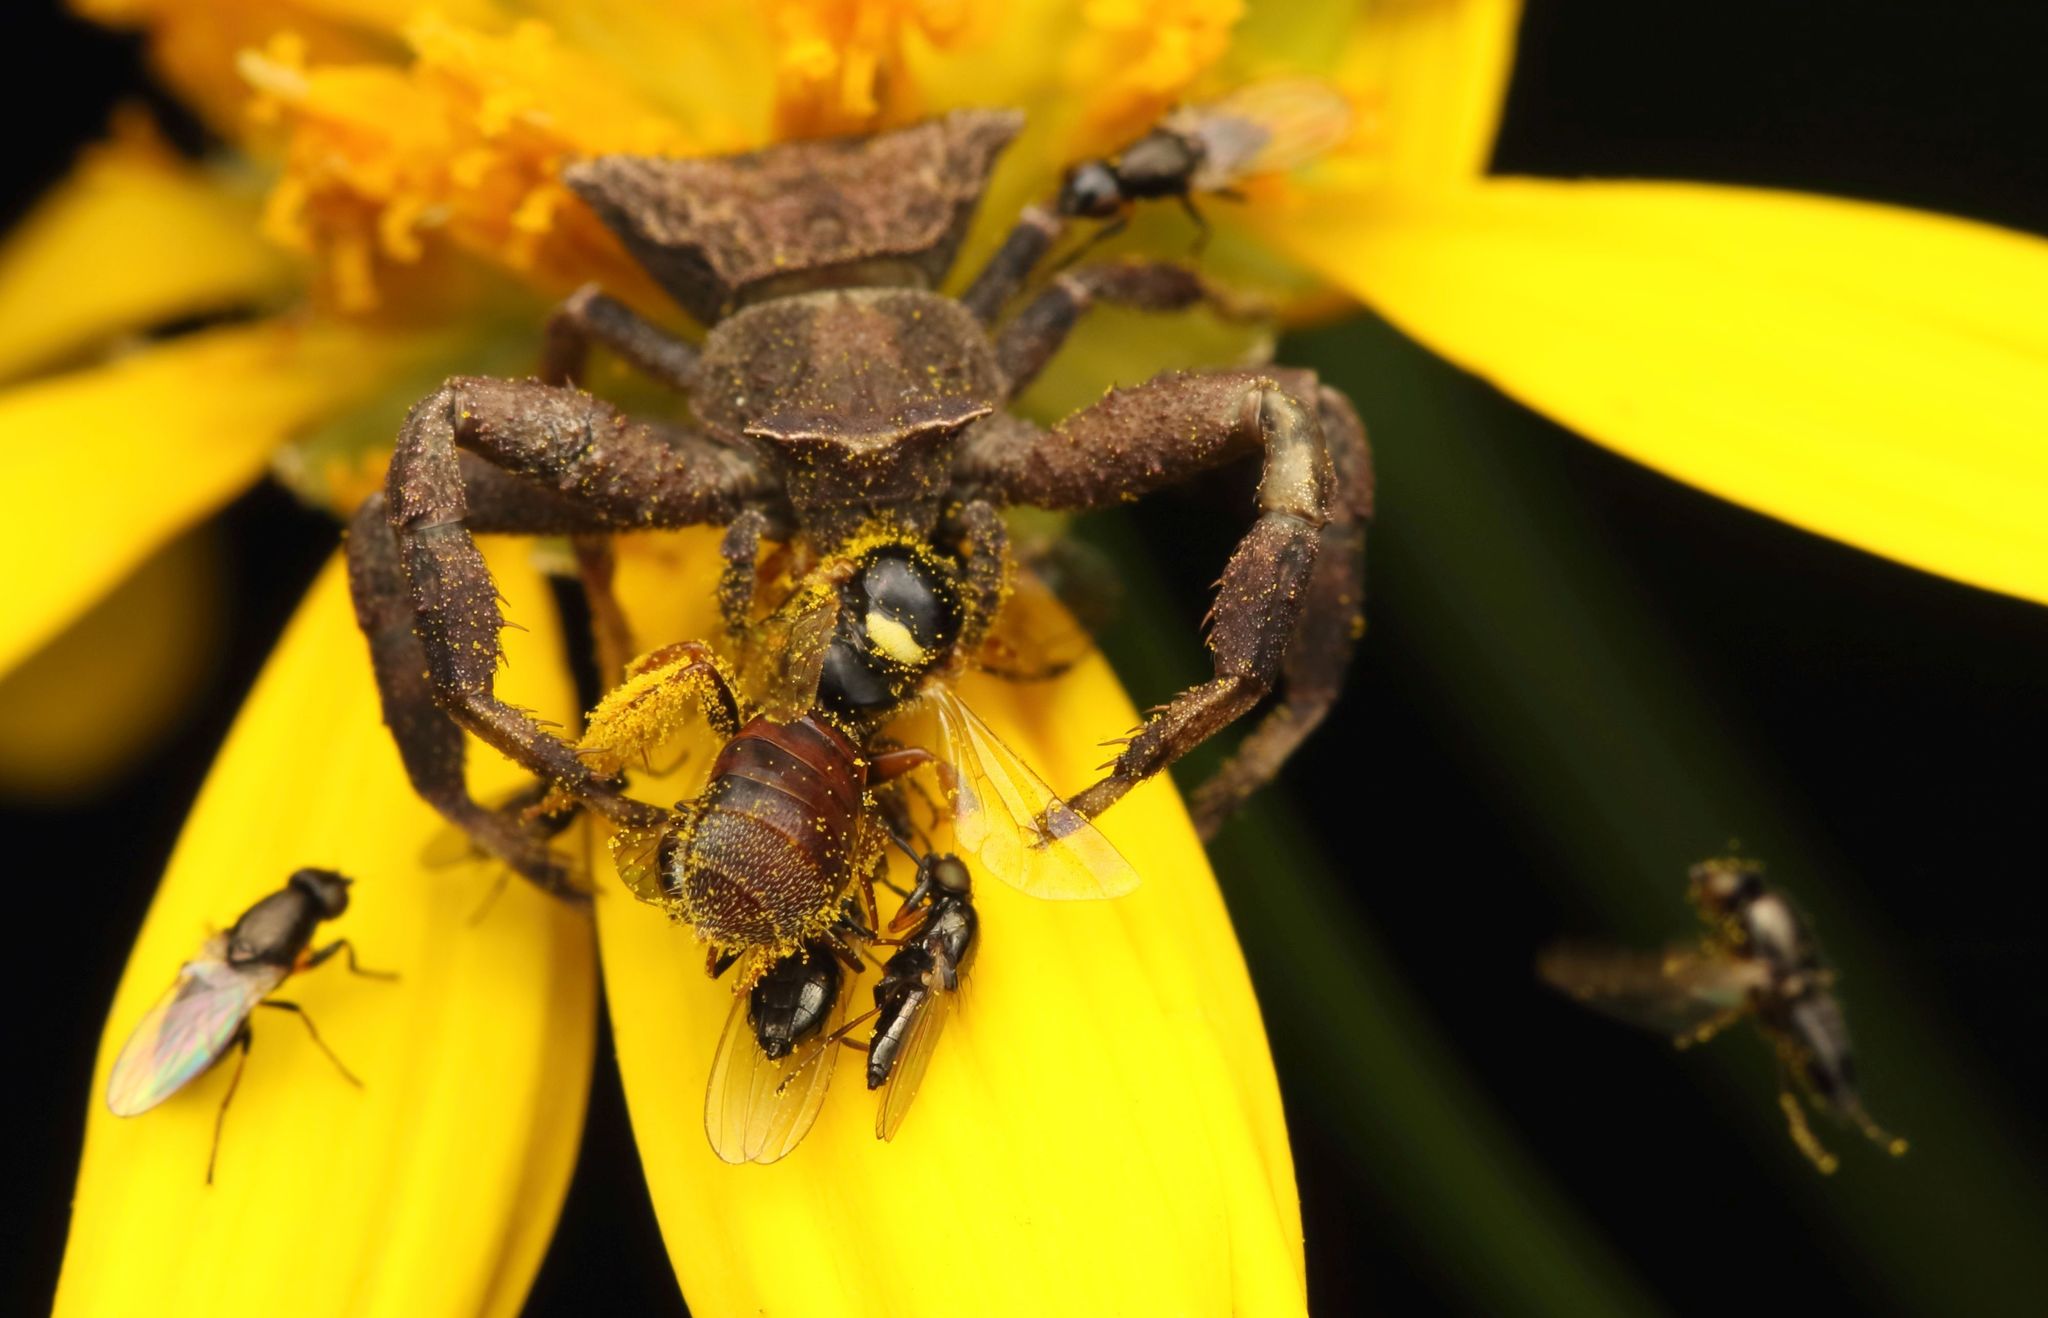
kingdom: Animalia
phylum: Arthropoda
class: Arachnida
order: Araneae
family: Thomisidae
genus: Thomisus
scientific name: Thomisus scrupeus
